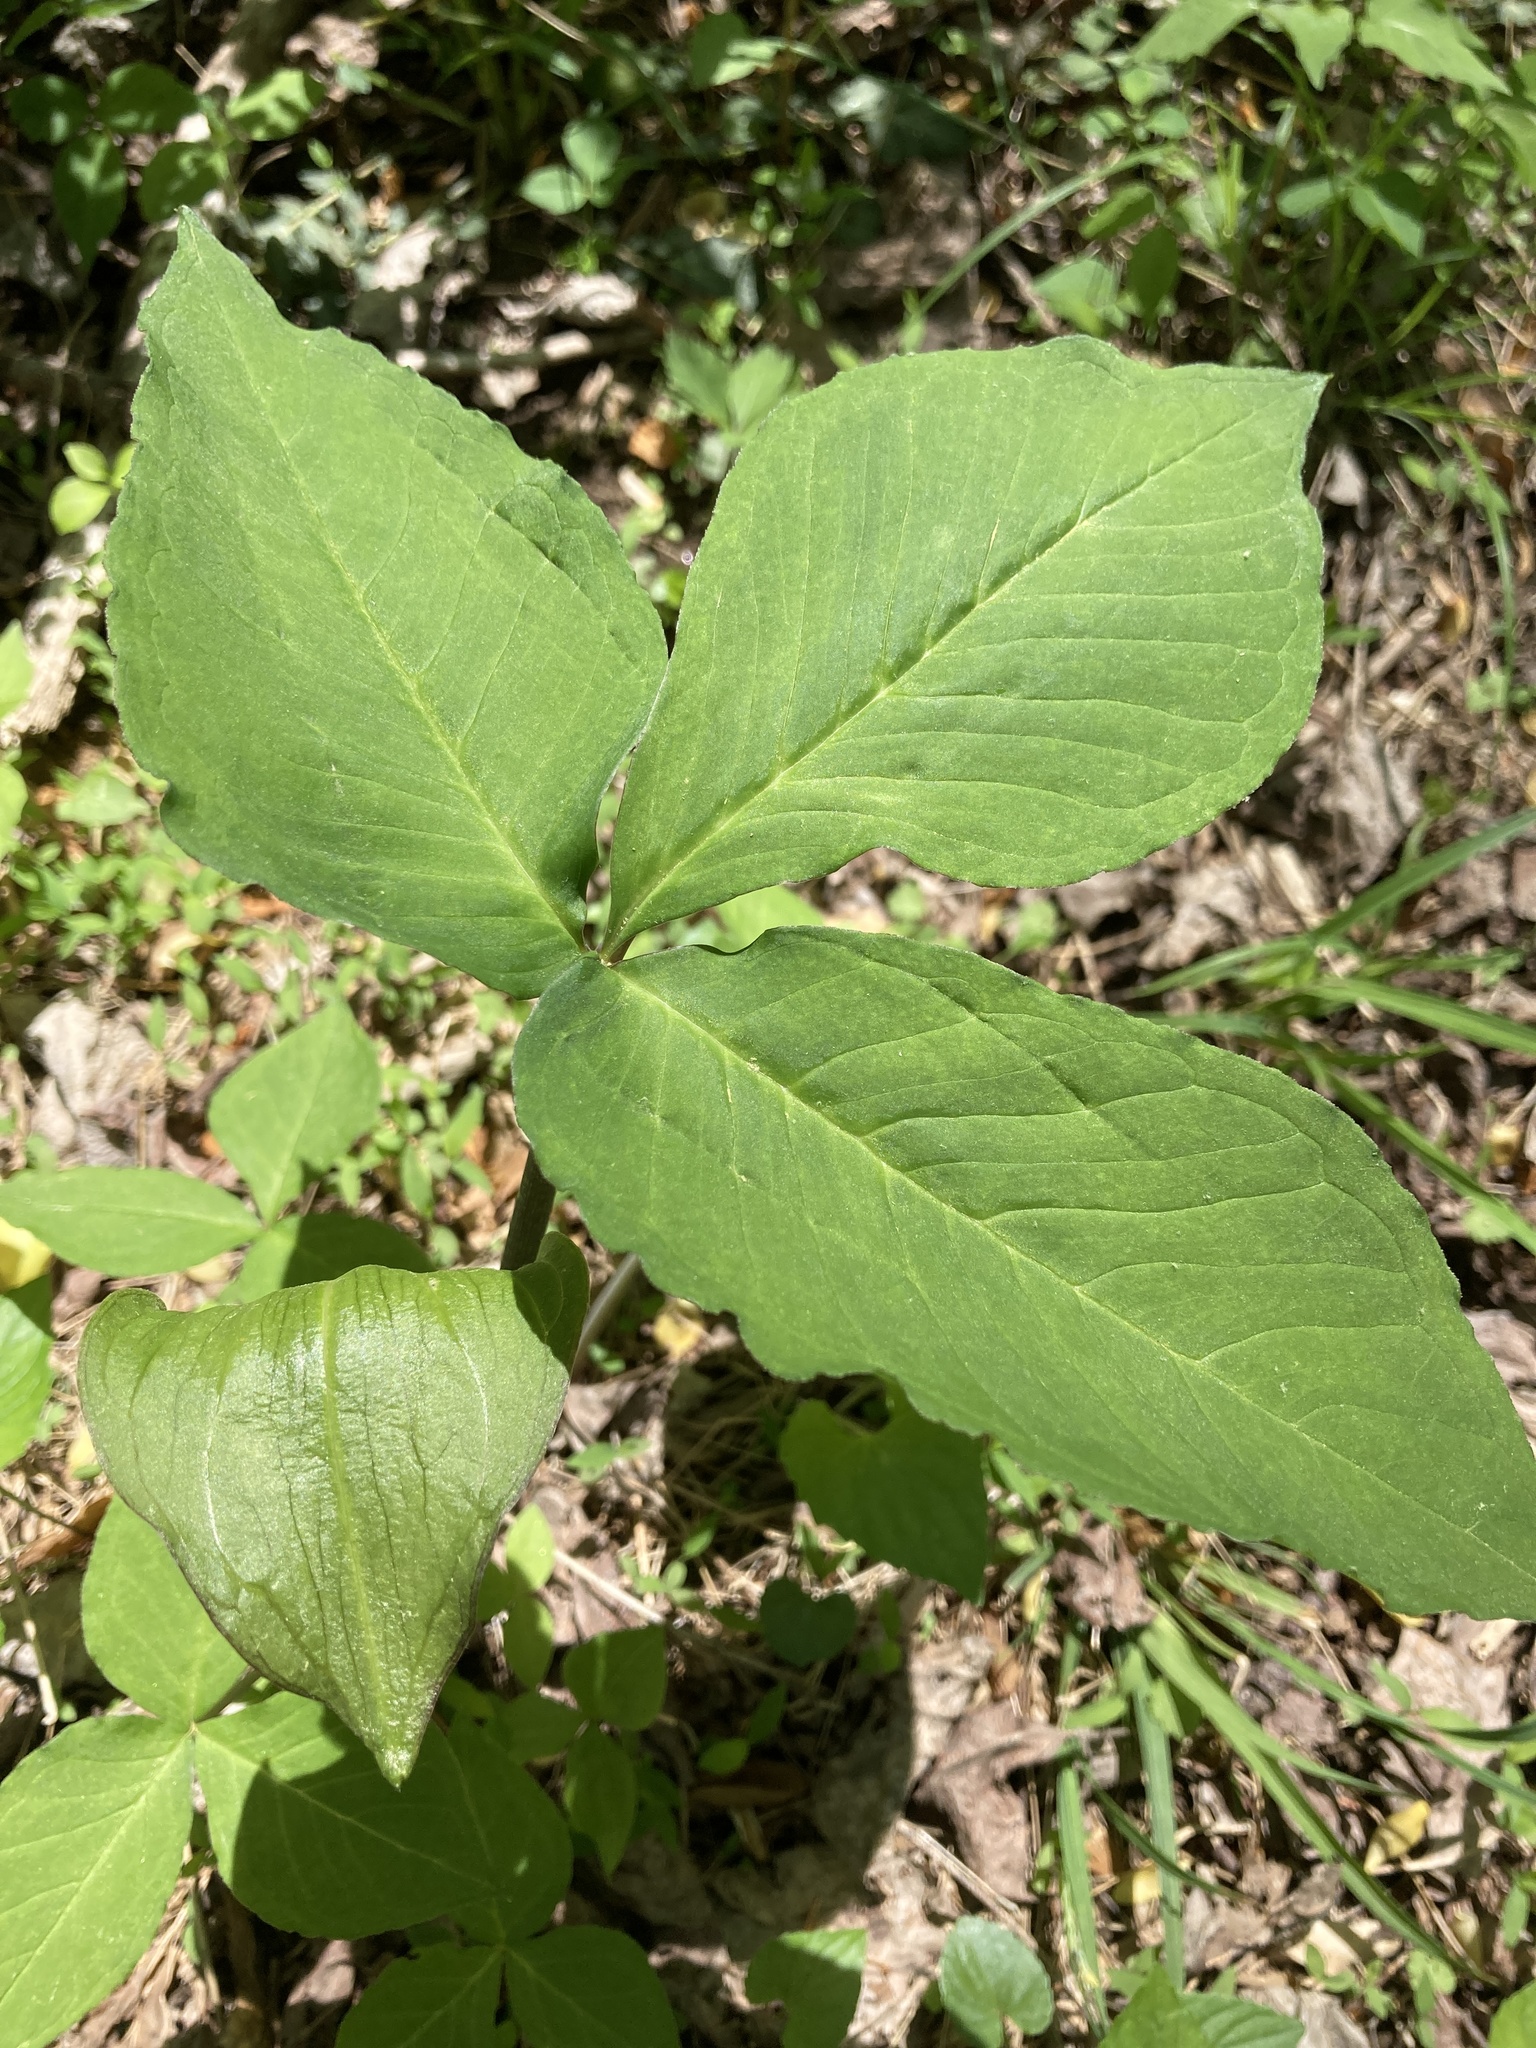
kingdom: Plantae
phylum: Tracheophyta
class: Liliopsida
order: Alismatales
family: Araceae
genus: Arisaema
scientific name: Arisaema triphyllum
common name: Jack-in-the-pulpit
